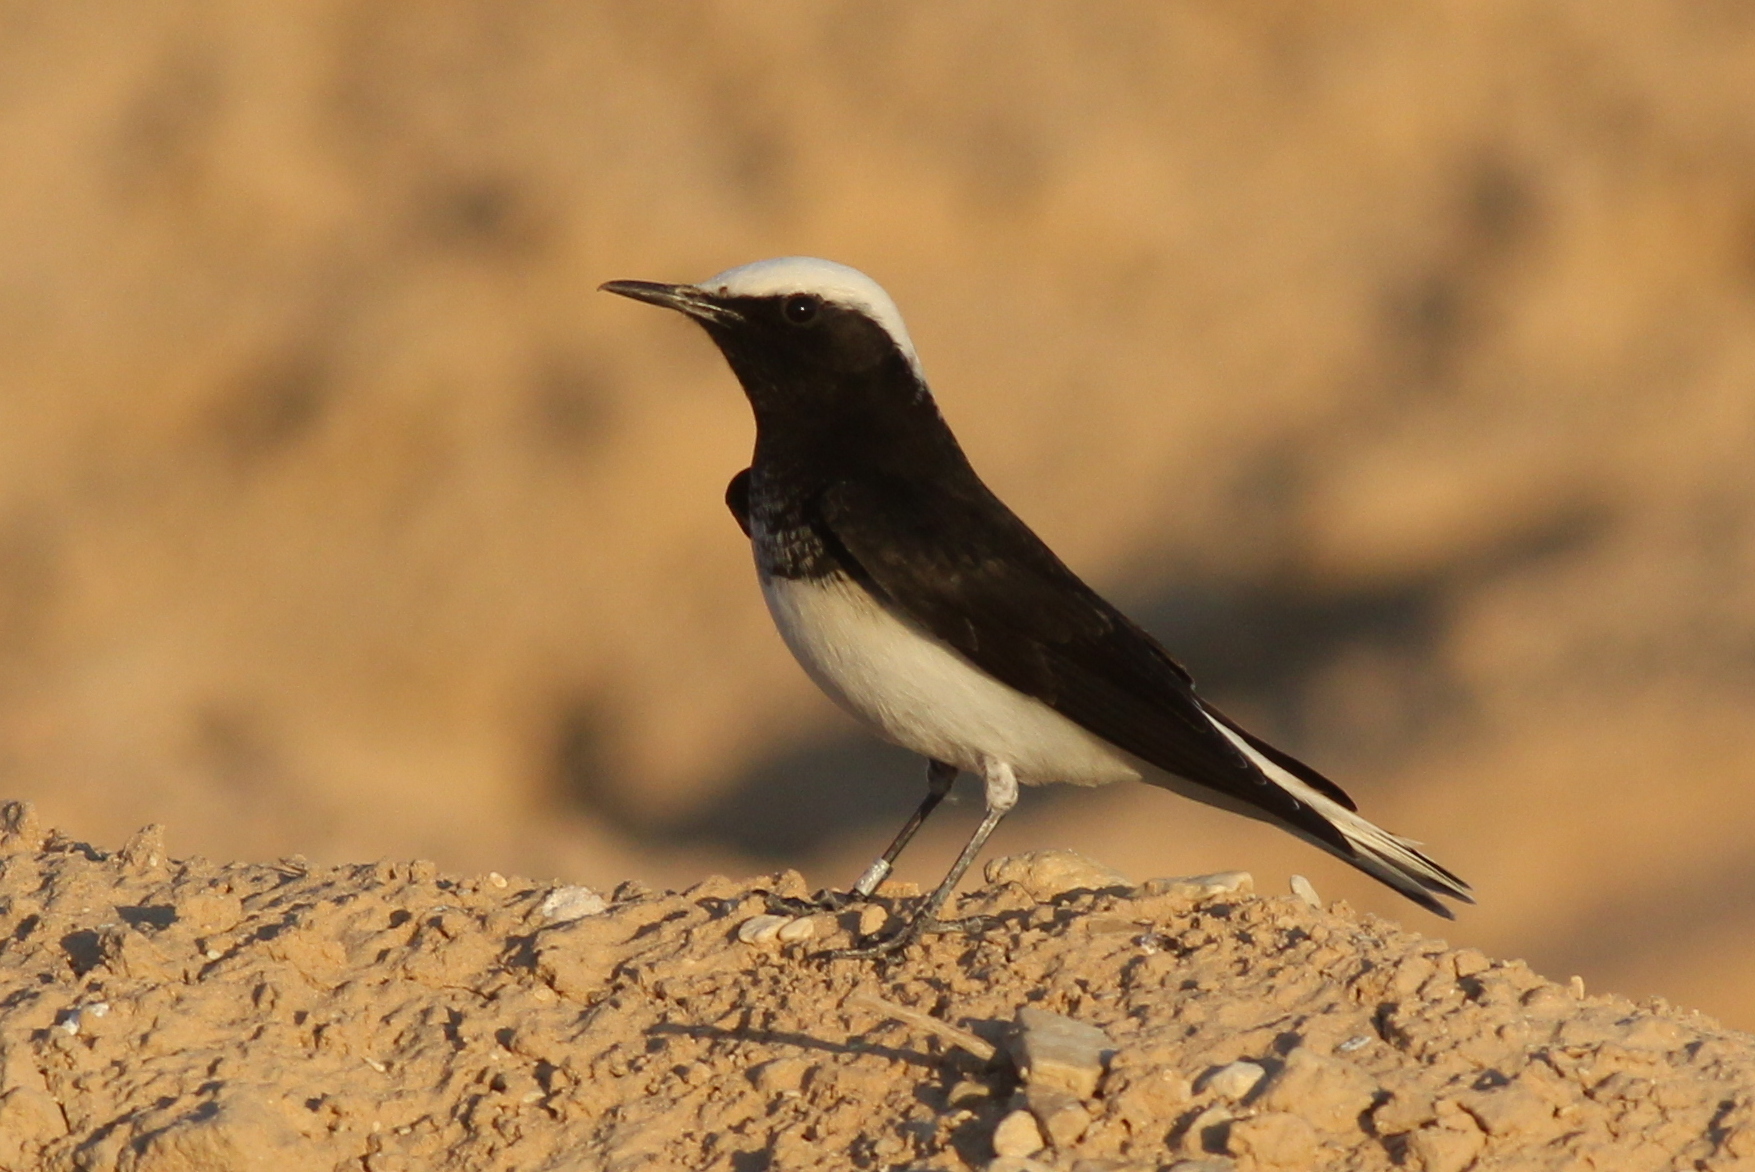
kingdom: Animalia
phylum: Chordata
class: Aves
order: Passeriformes
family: Muscicapidae
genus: Oenanthe
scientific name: Oenanthe monacha
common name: Hooded wheatear
